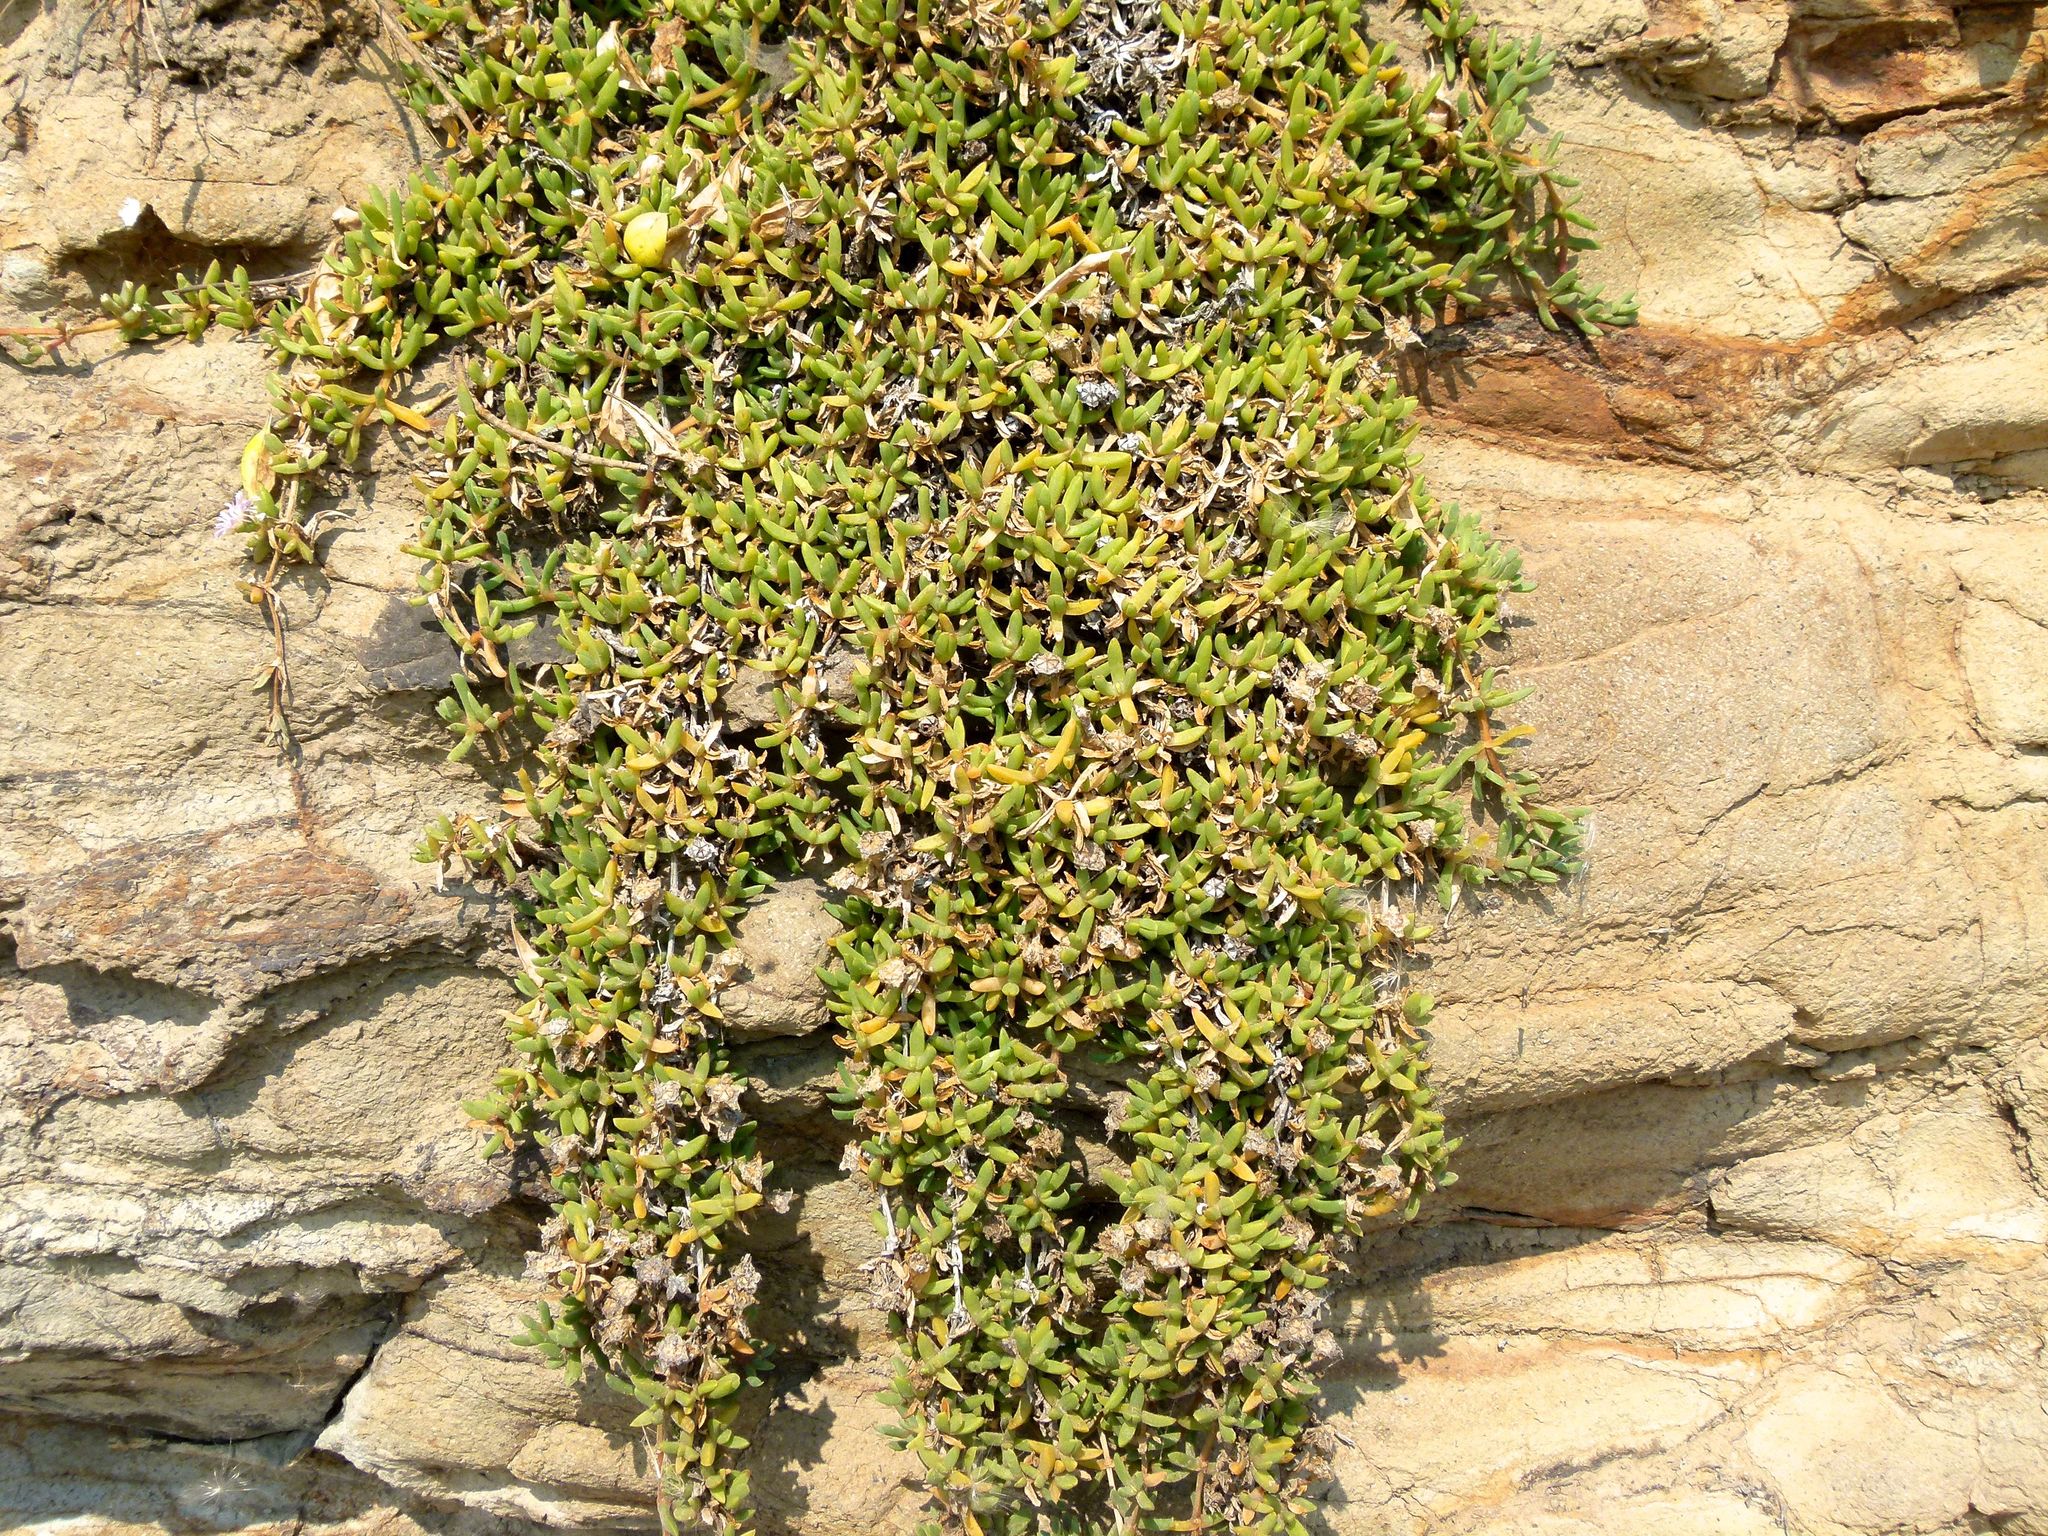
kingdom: Plantae
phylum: Tracheophyta
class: Magnoliopsida
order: Caryophyllales
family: Aizoaceae
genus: Disphyma
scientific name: Disphyma australe
